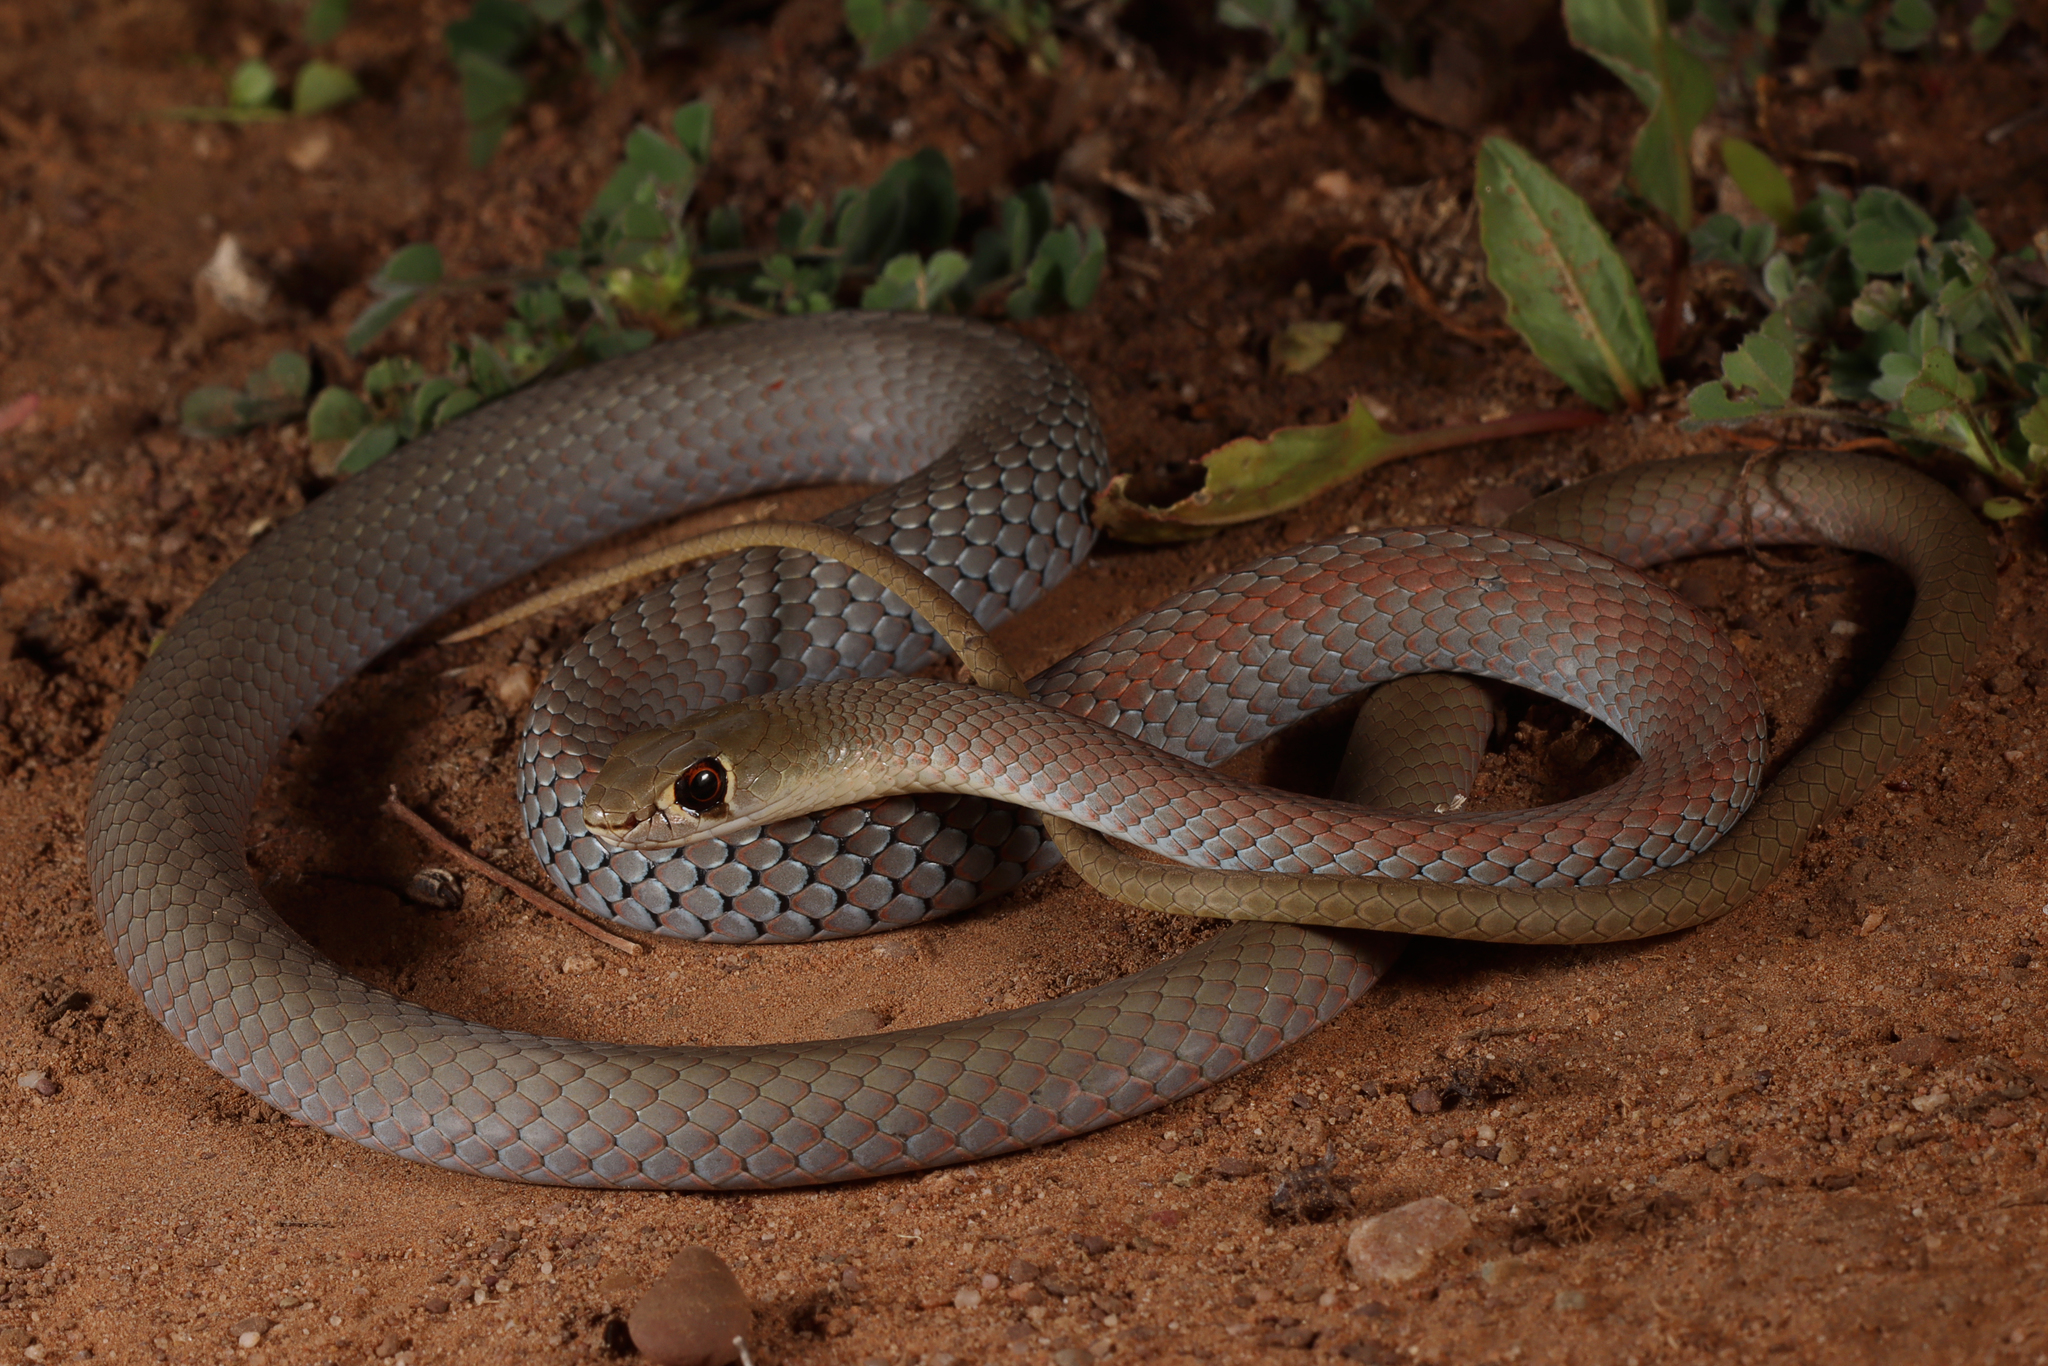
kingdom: Animalia
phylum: Chordata
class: Squamata
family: Elapidae
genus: Demansia
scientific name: Demansia psammophis
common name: Yellow-faced whip snake
